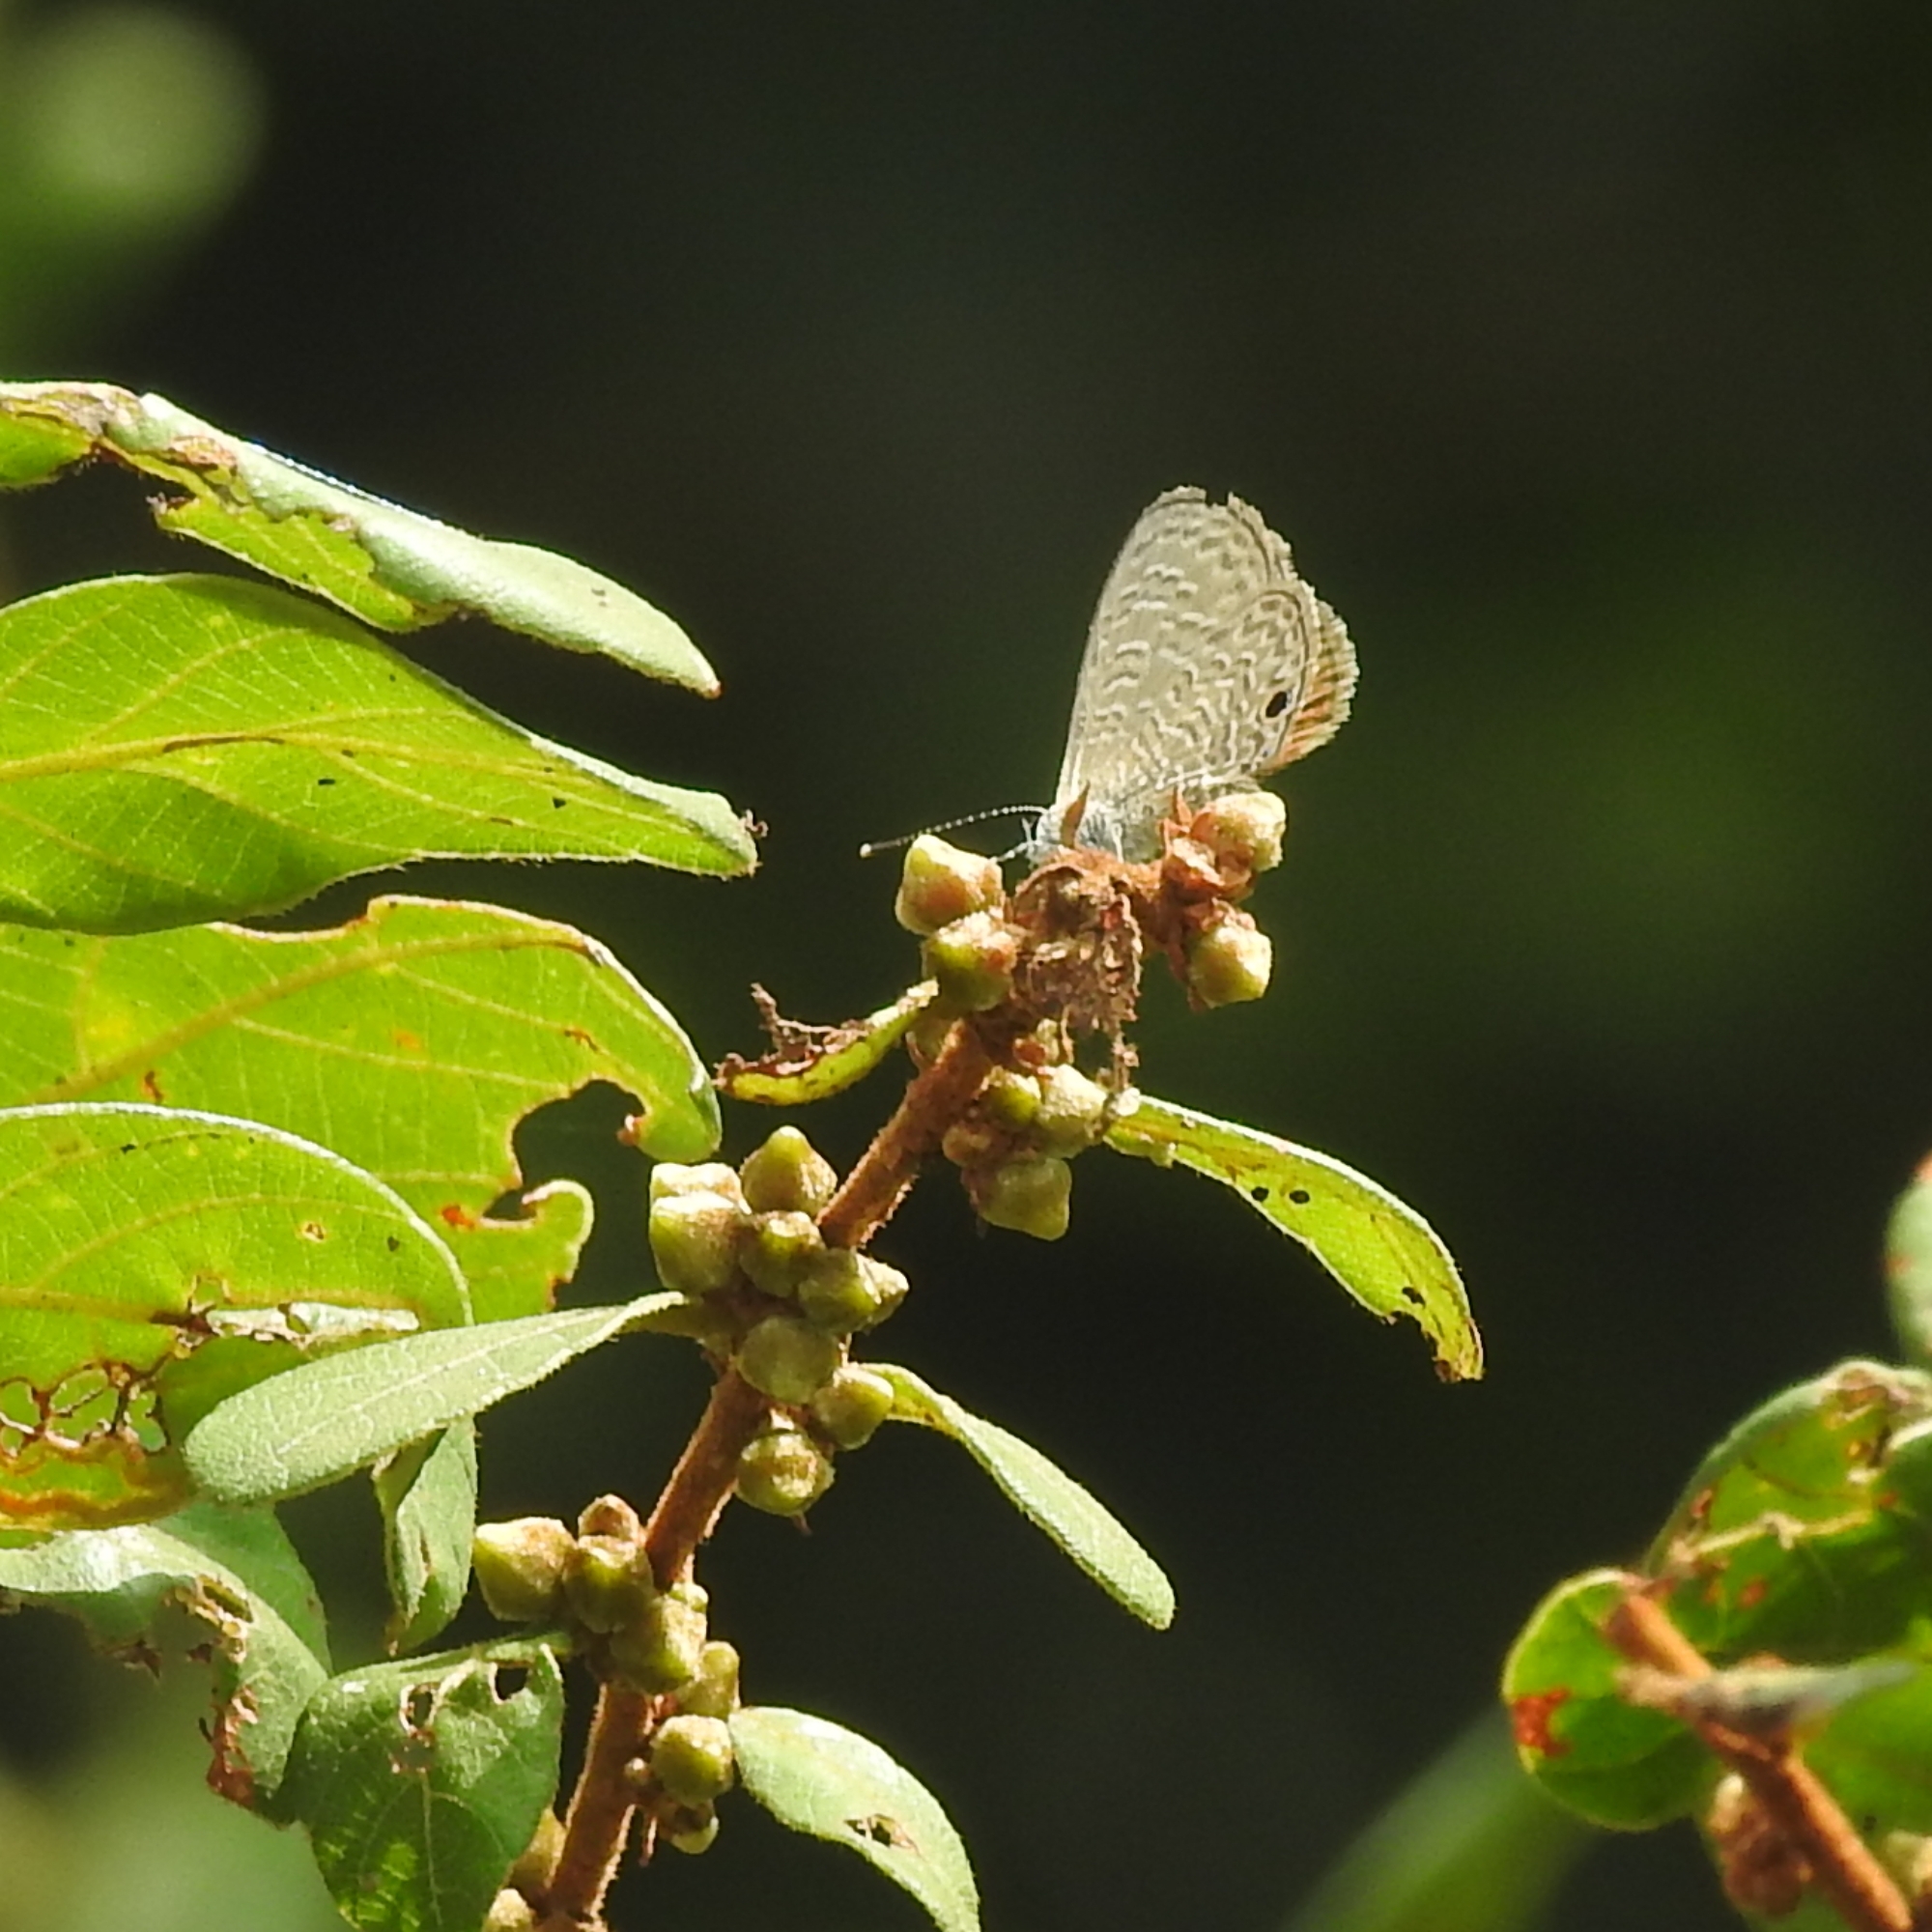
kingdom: Animalia
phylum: Arthropoda
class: Insecta
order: Lepidoptera
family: Lycaenidae
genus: Prosotas
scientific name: Prosotas dubiosa
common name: Tailless lineblue
